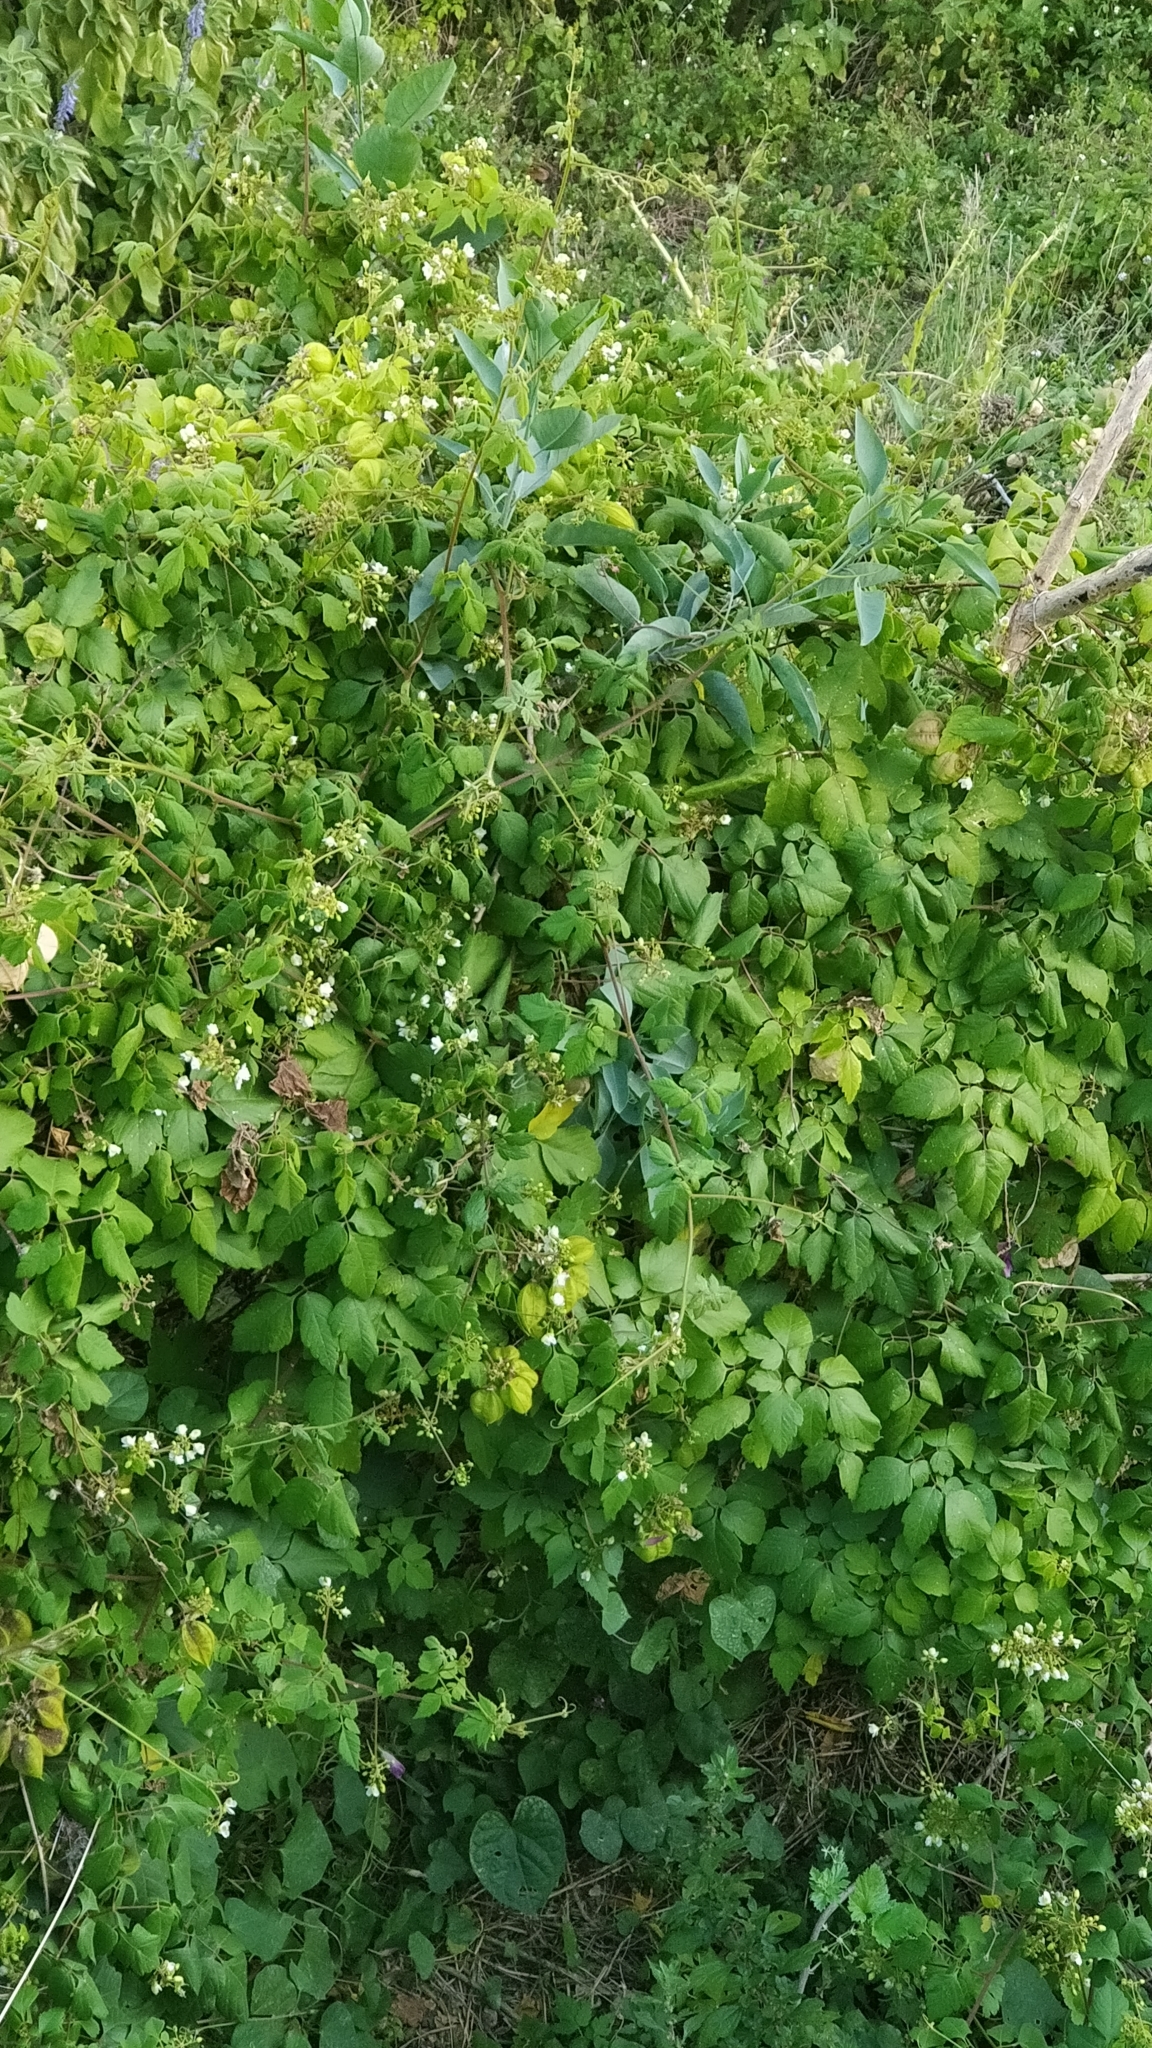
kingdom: Plantae
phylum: Tracheophyta
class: Magnoliopsida
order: Sapindales
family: Sapindaceae
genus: Cardiospermum
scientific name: Cardiospermum grandiflorum
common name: Balloon vine
